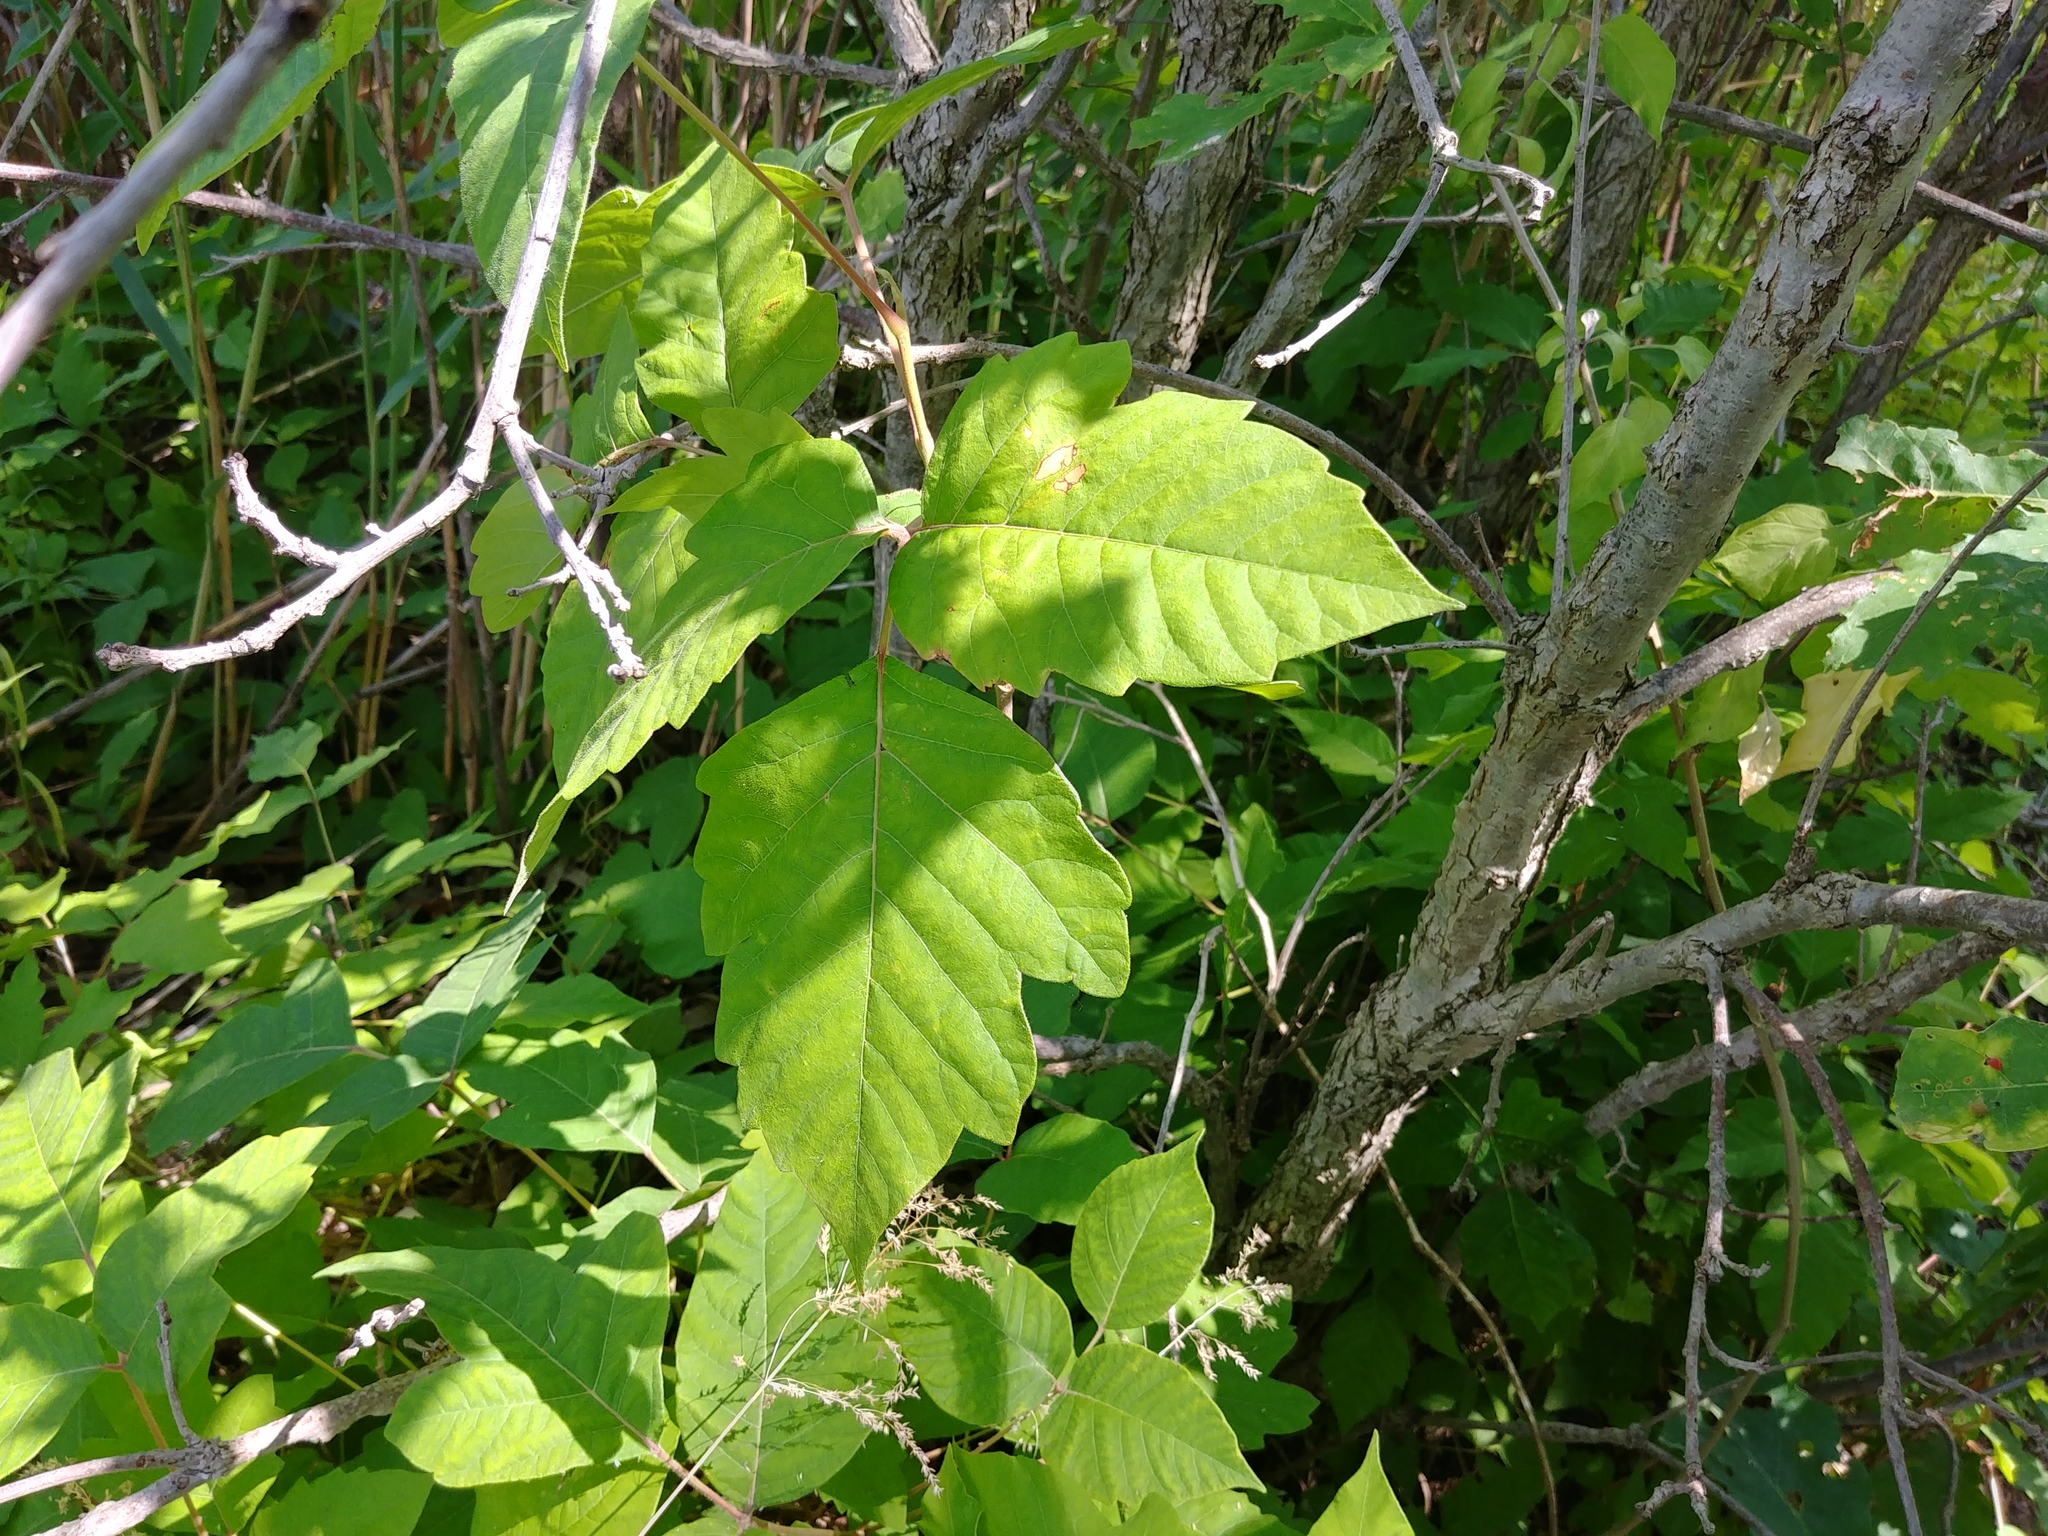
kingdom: Plantae
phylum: Tracheophyta
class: Magnoliopsida
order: Sapindales
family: Anacardiaceae
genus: Toxicodendron
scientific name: Toxicodendron radicans
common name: Poison ivy
